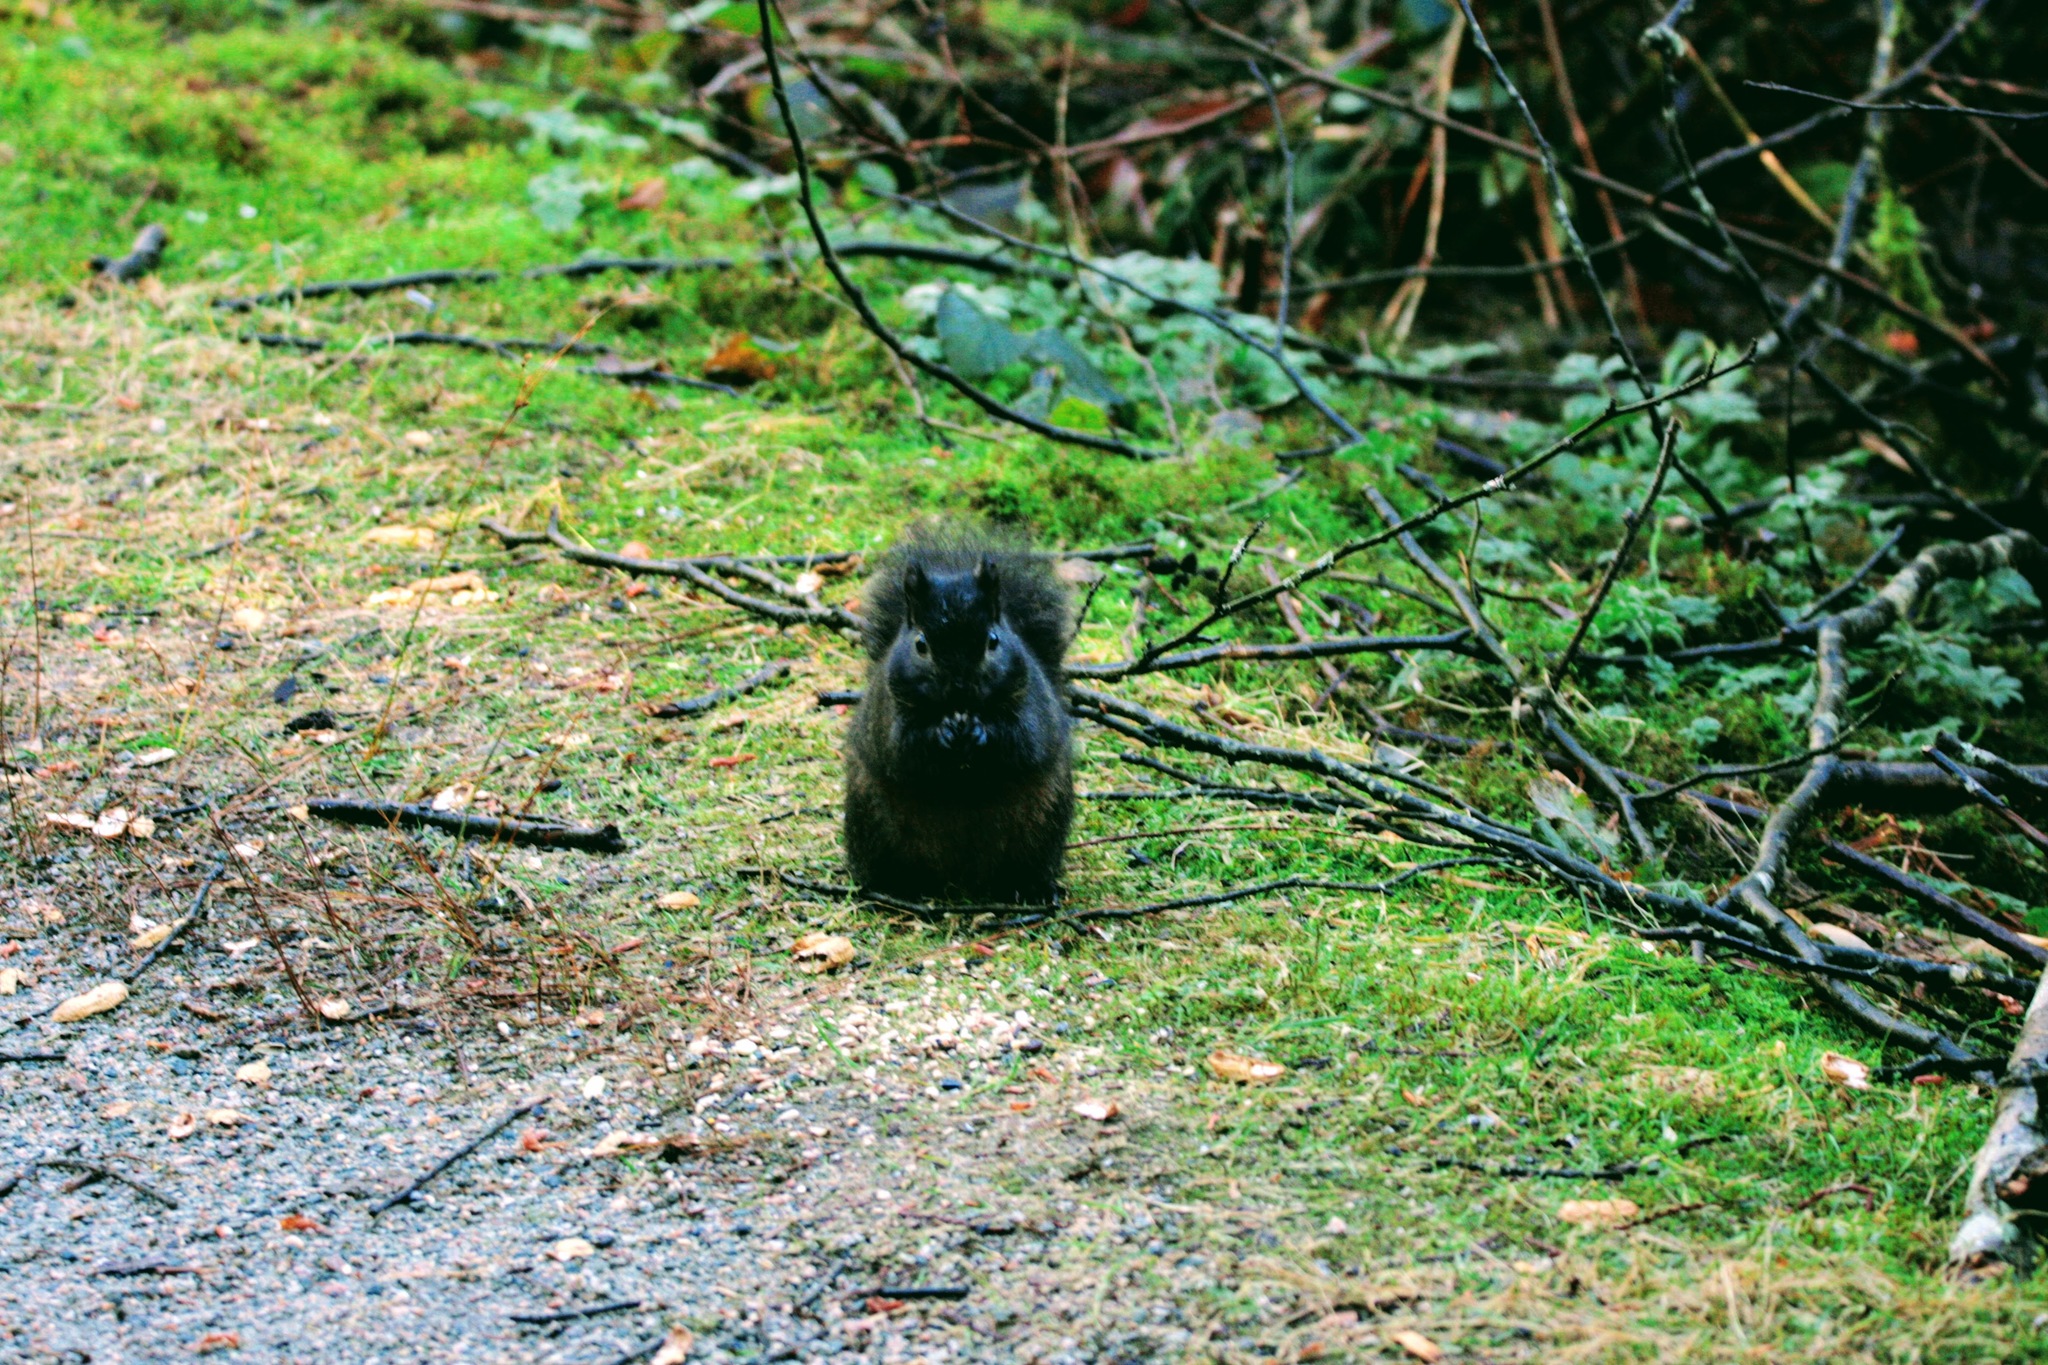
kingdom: Animalia
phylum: Chordata
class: Mammalia
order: Rodentia
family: Sciuridae
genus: Sciurus
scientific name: Sciurus carolinensis
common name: Eastern gray squirrel
